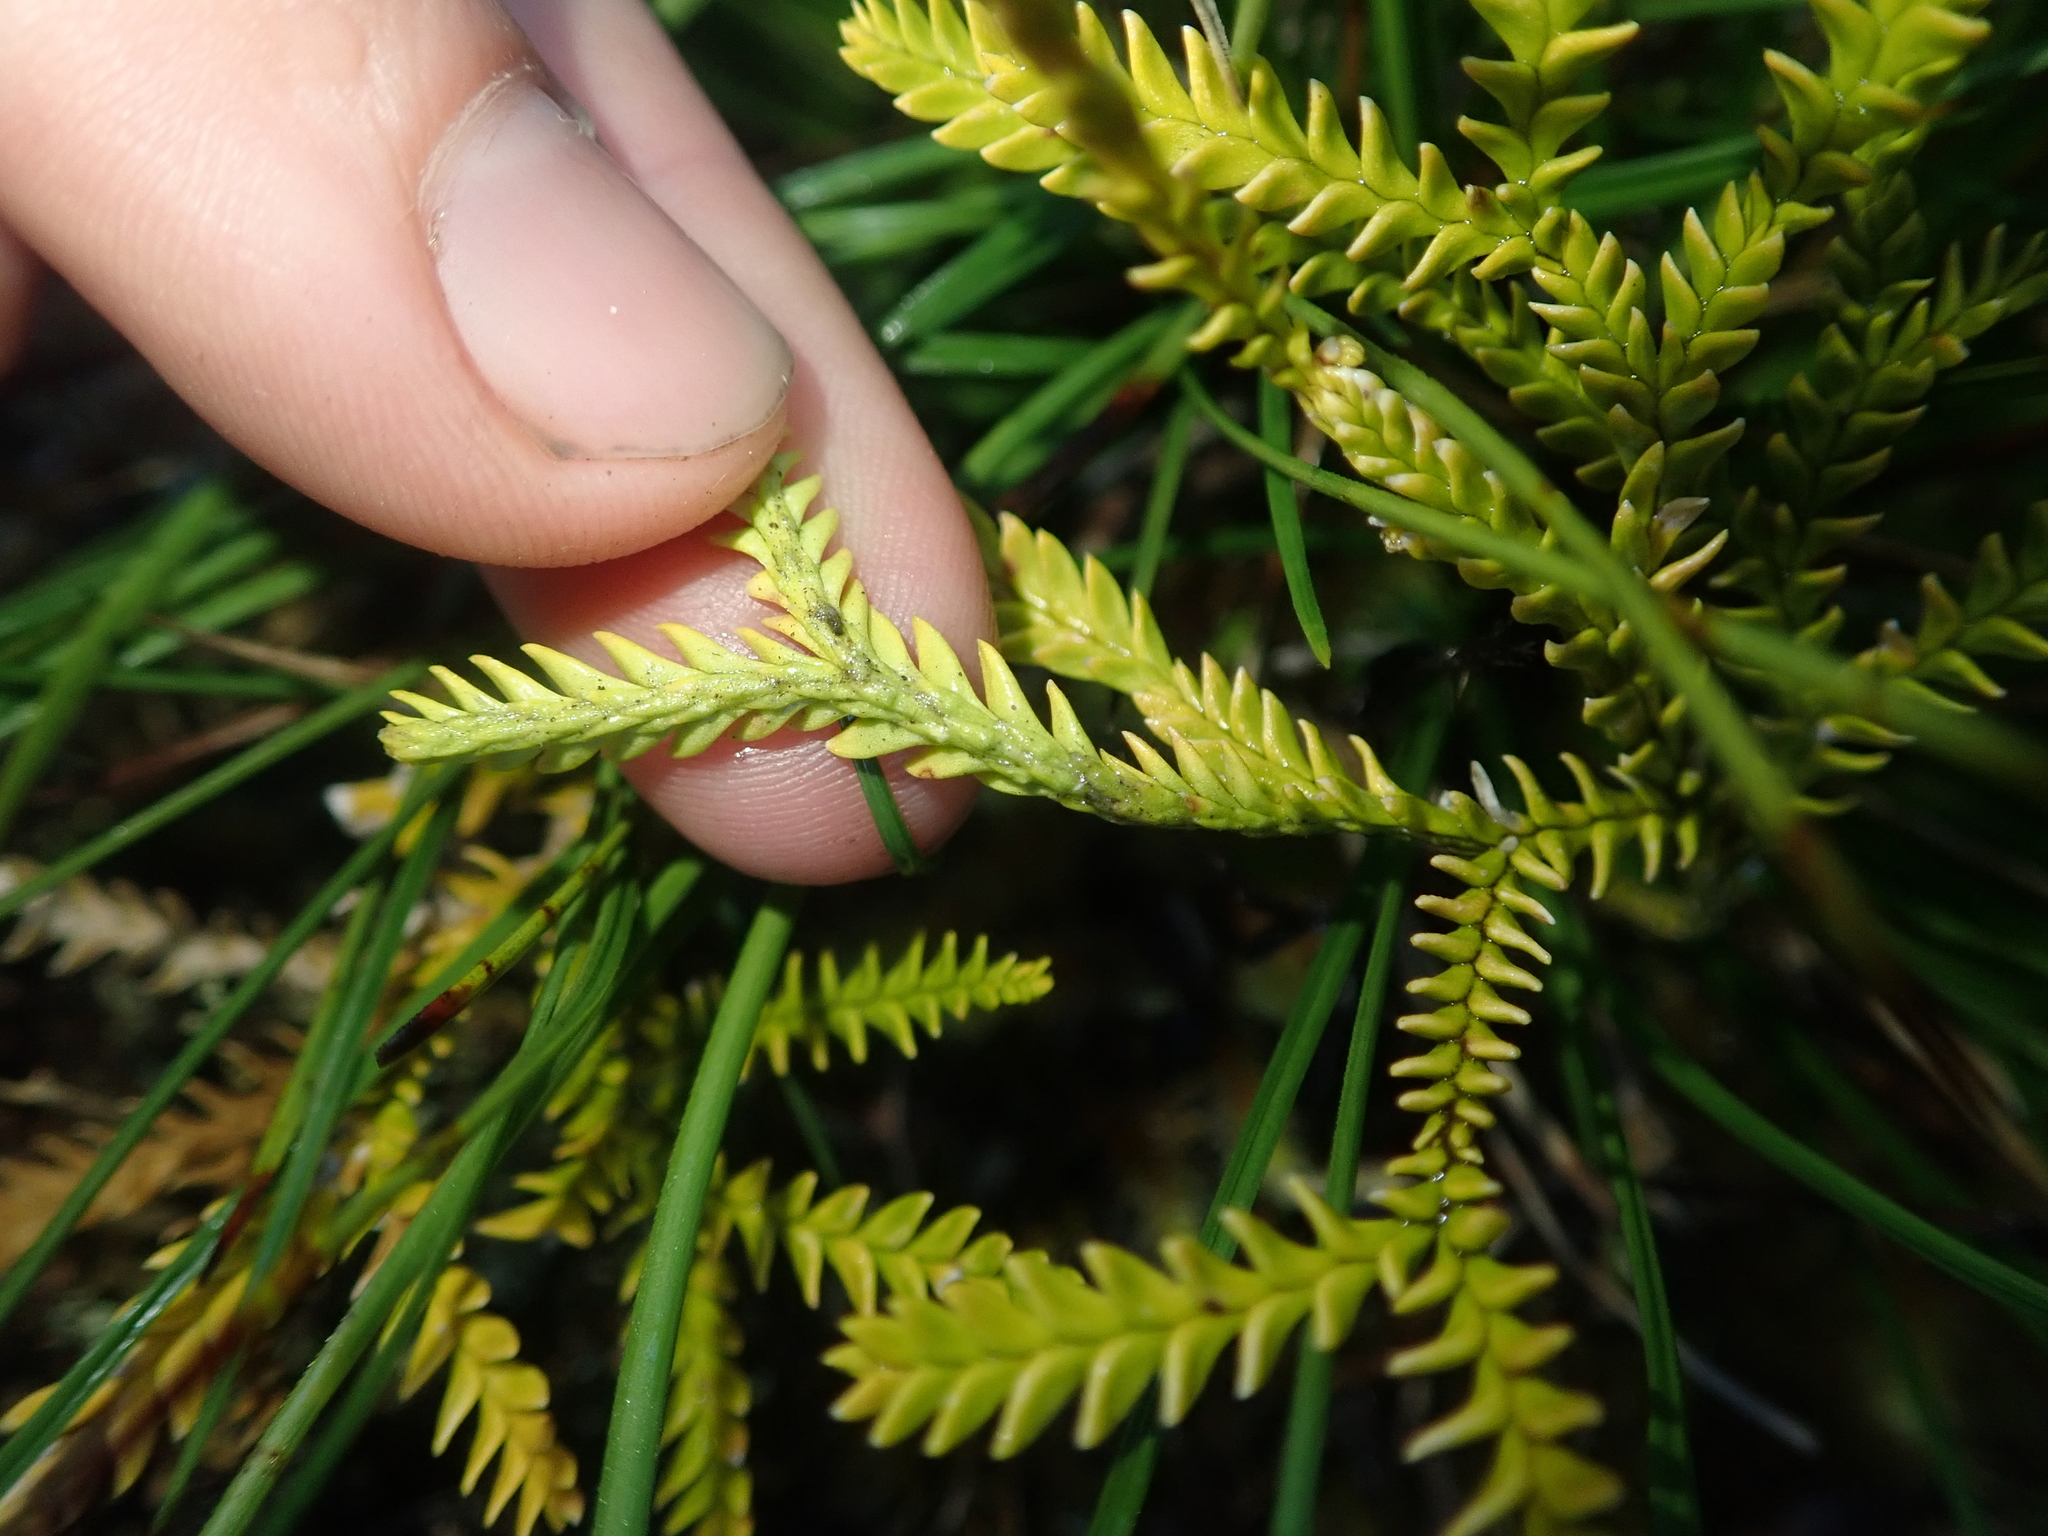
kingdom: Plantae
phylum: Tracheophyta
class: Lycopodiopsida
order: Lycopodiales
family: Lycopodiaceae
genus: Diphasium
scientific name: Diphasium gayanum
